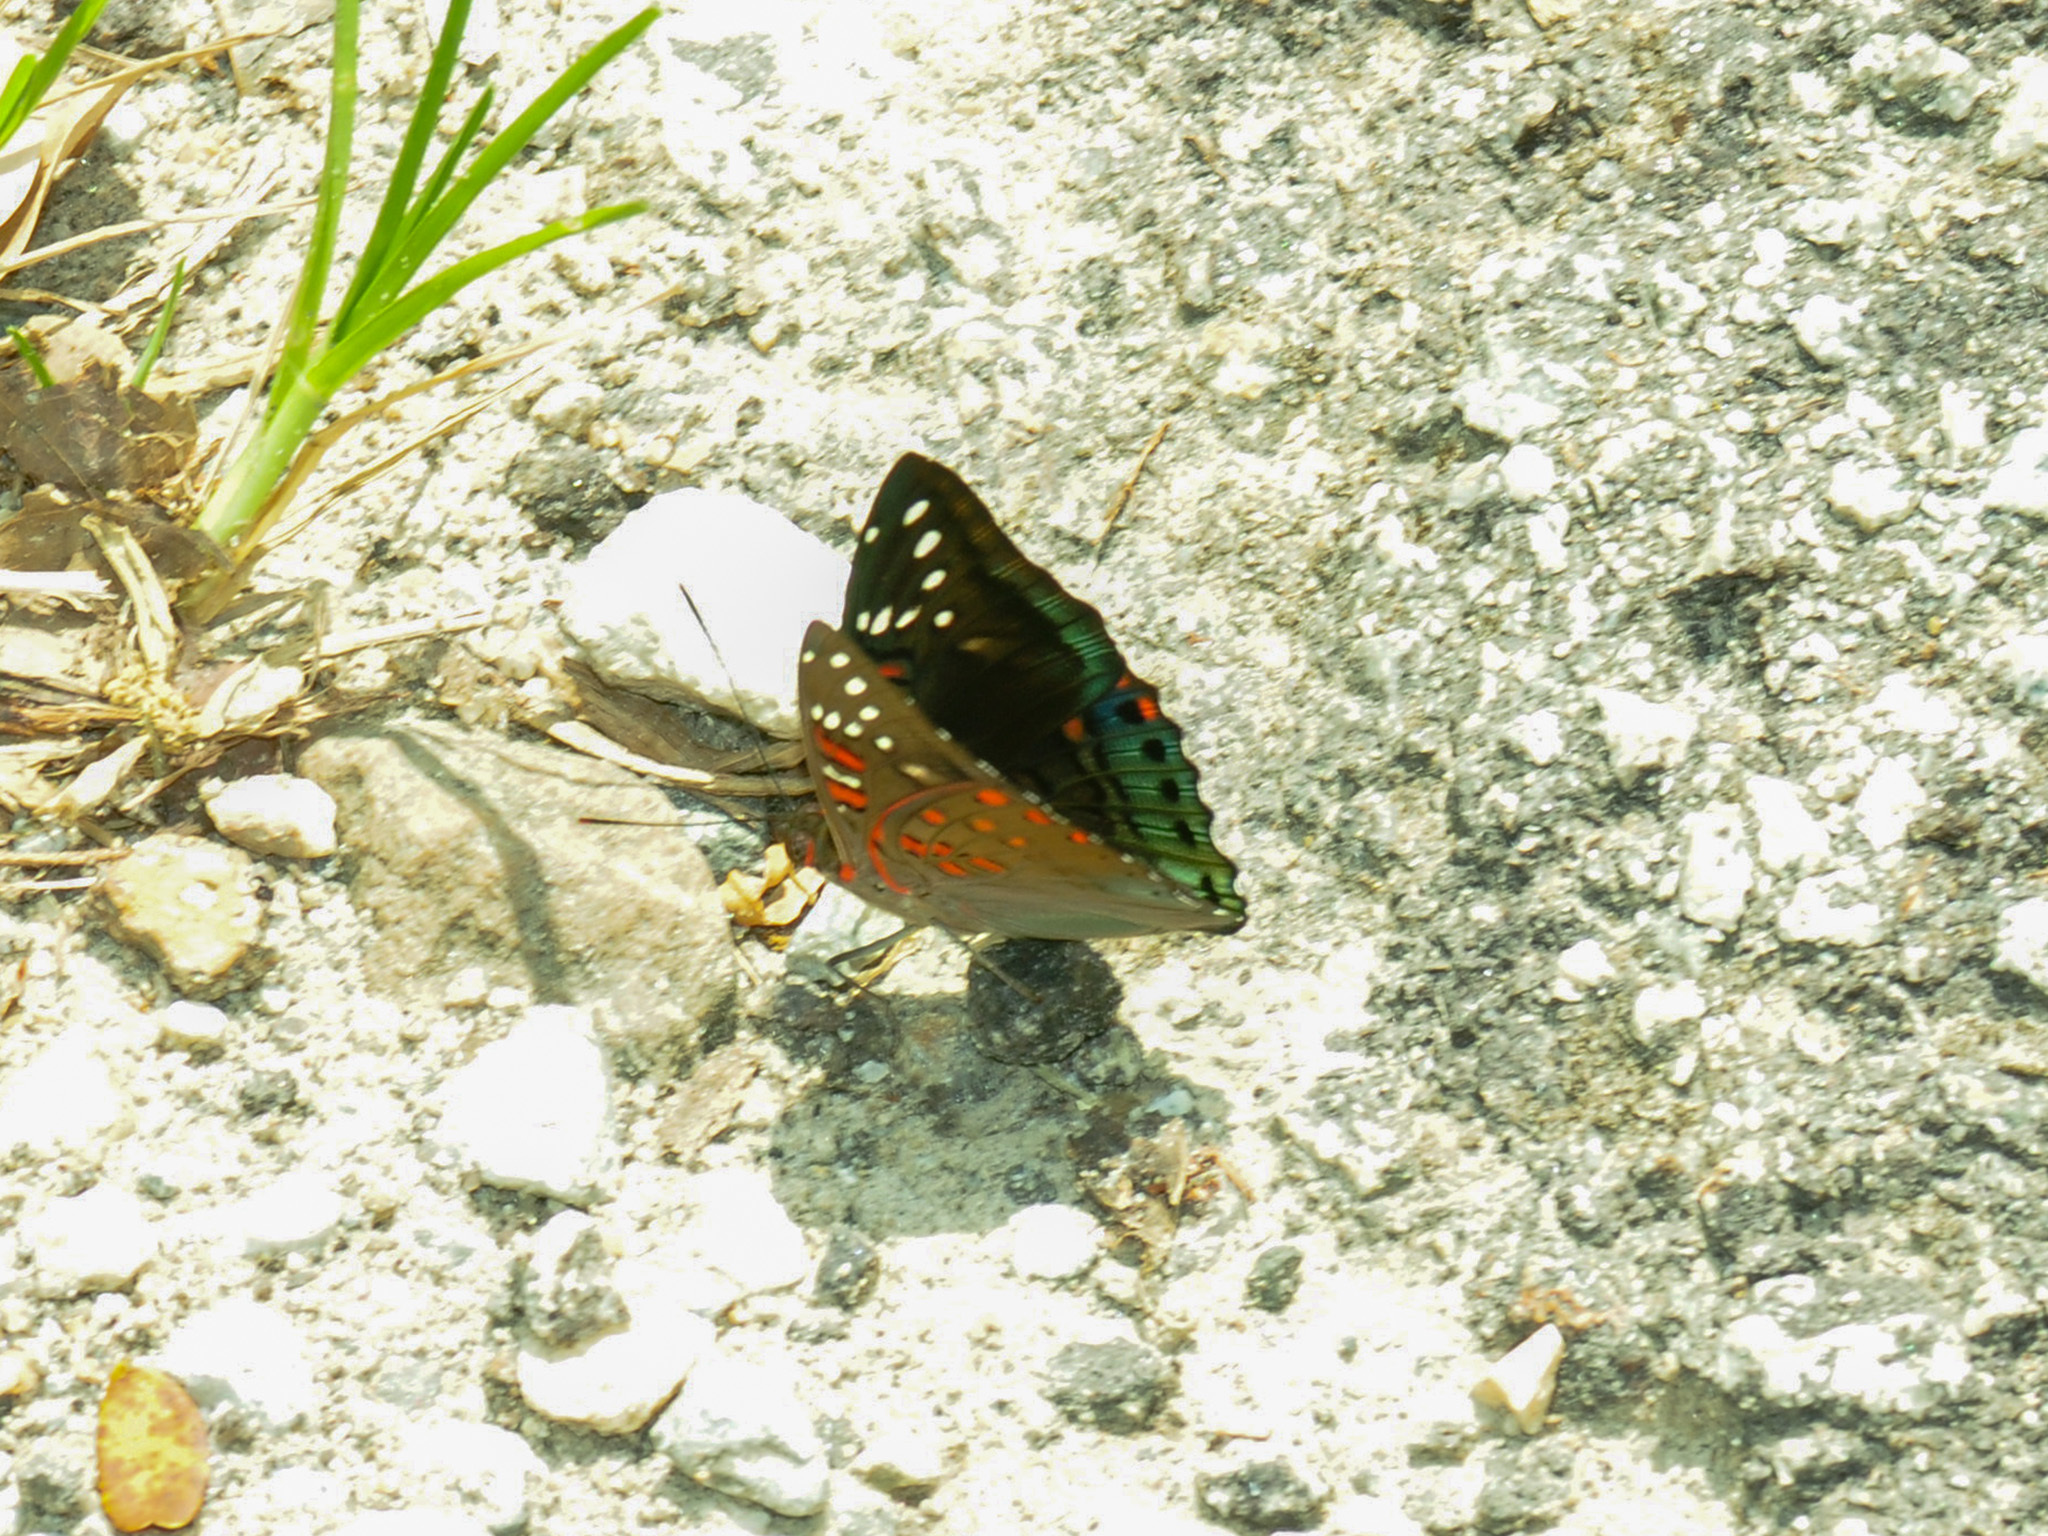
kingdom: Animalia
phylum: Arthropoda
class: Insecta
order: Lepidoptera
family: Nymphalidae
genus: Euthalia
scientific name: Euthalia malaccana
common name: Fruhstorfer's baron
